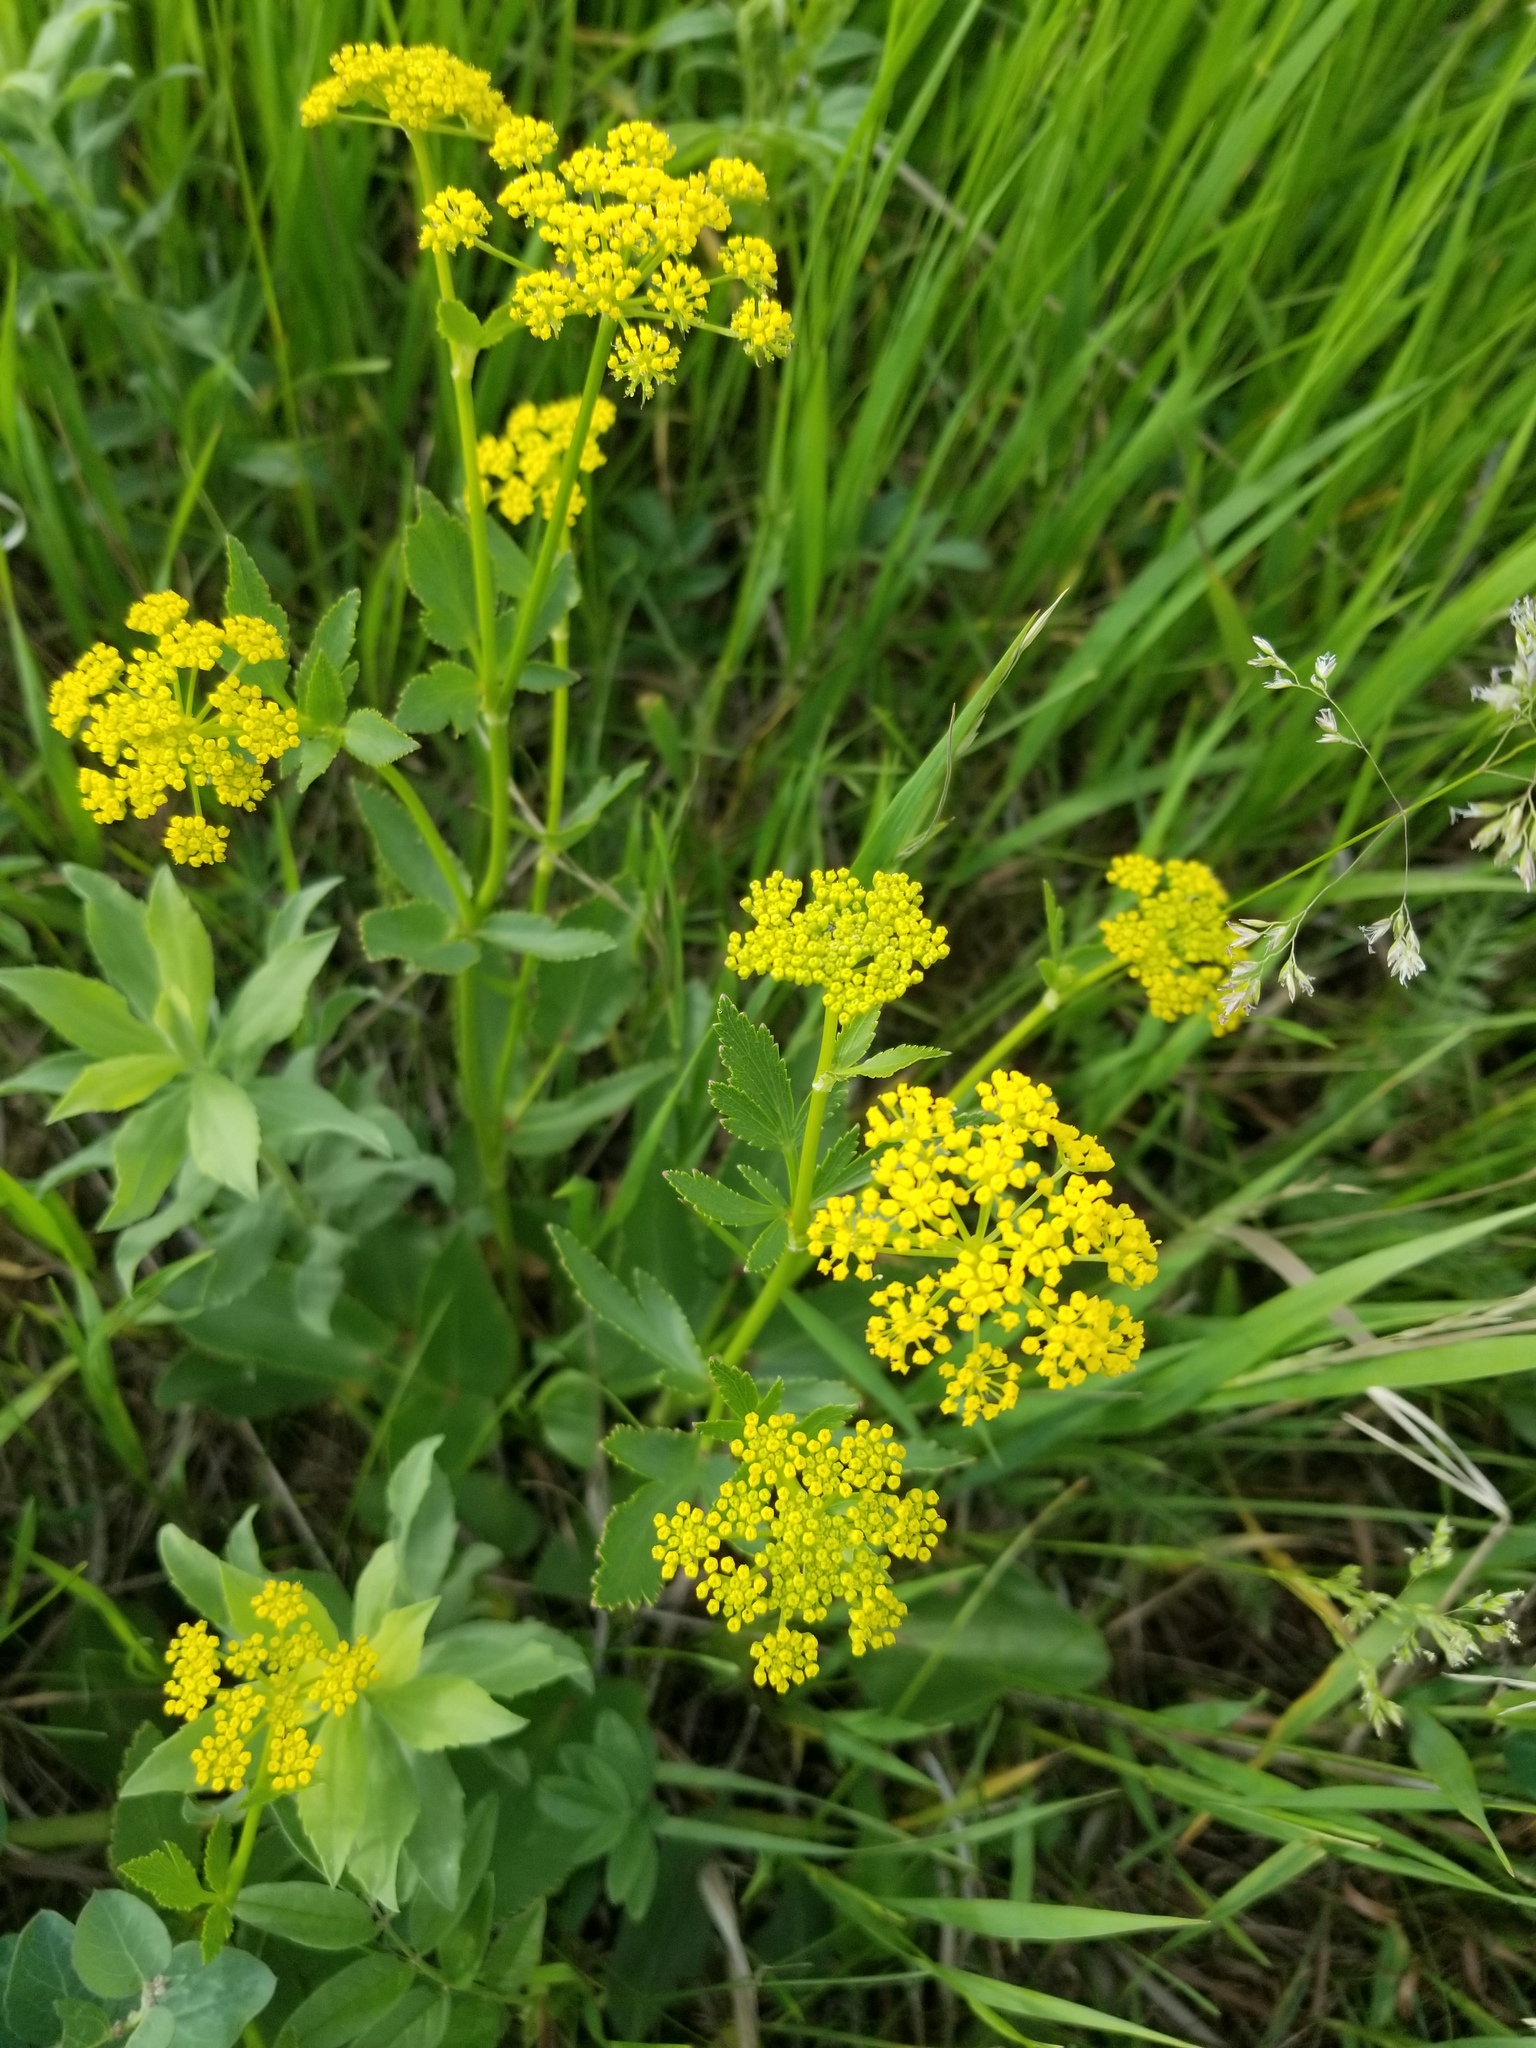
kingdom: Plantae
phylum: Tracheophyta
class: Magnoliopsida
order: Apiales
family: Apiaceae
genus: Zizia
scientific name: Zizia aptera
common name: Heart-leaved alexanders
